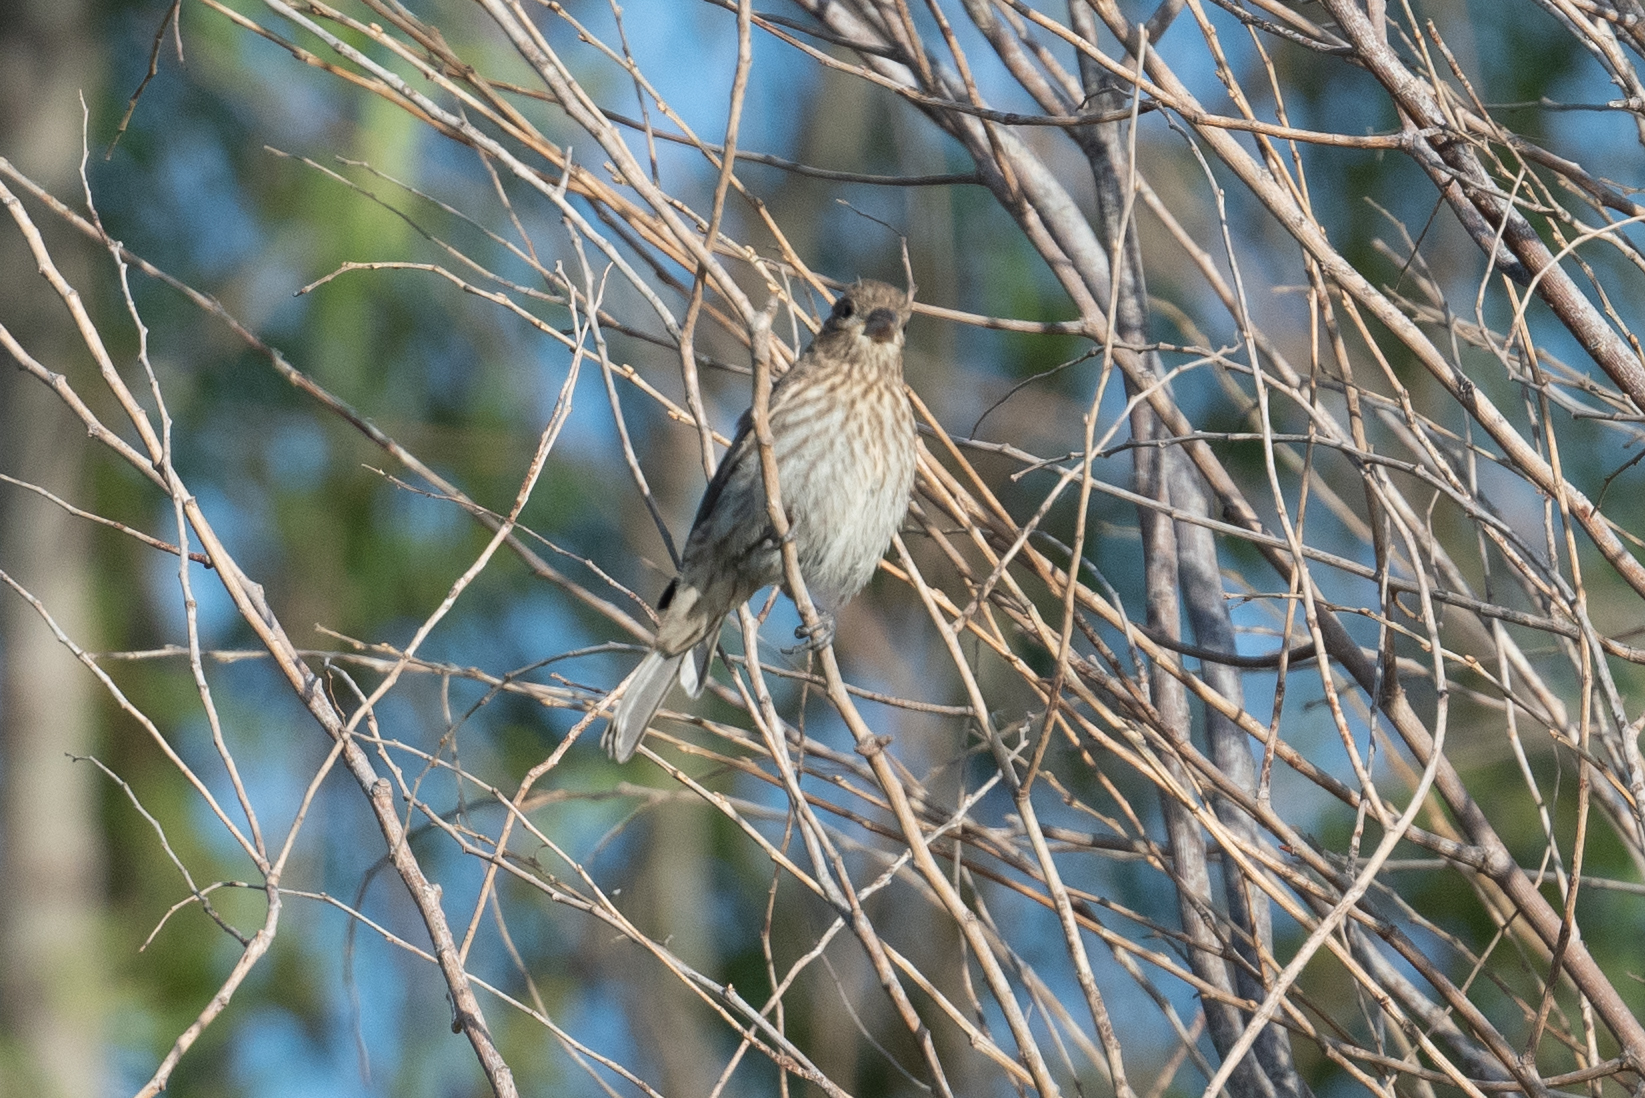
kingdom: Animalia
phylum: Chordata
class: Aves
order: Passeriformes
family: Fringillidae
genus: Haemorhous
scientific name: Haemorhous mexicanus
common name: House finch
